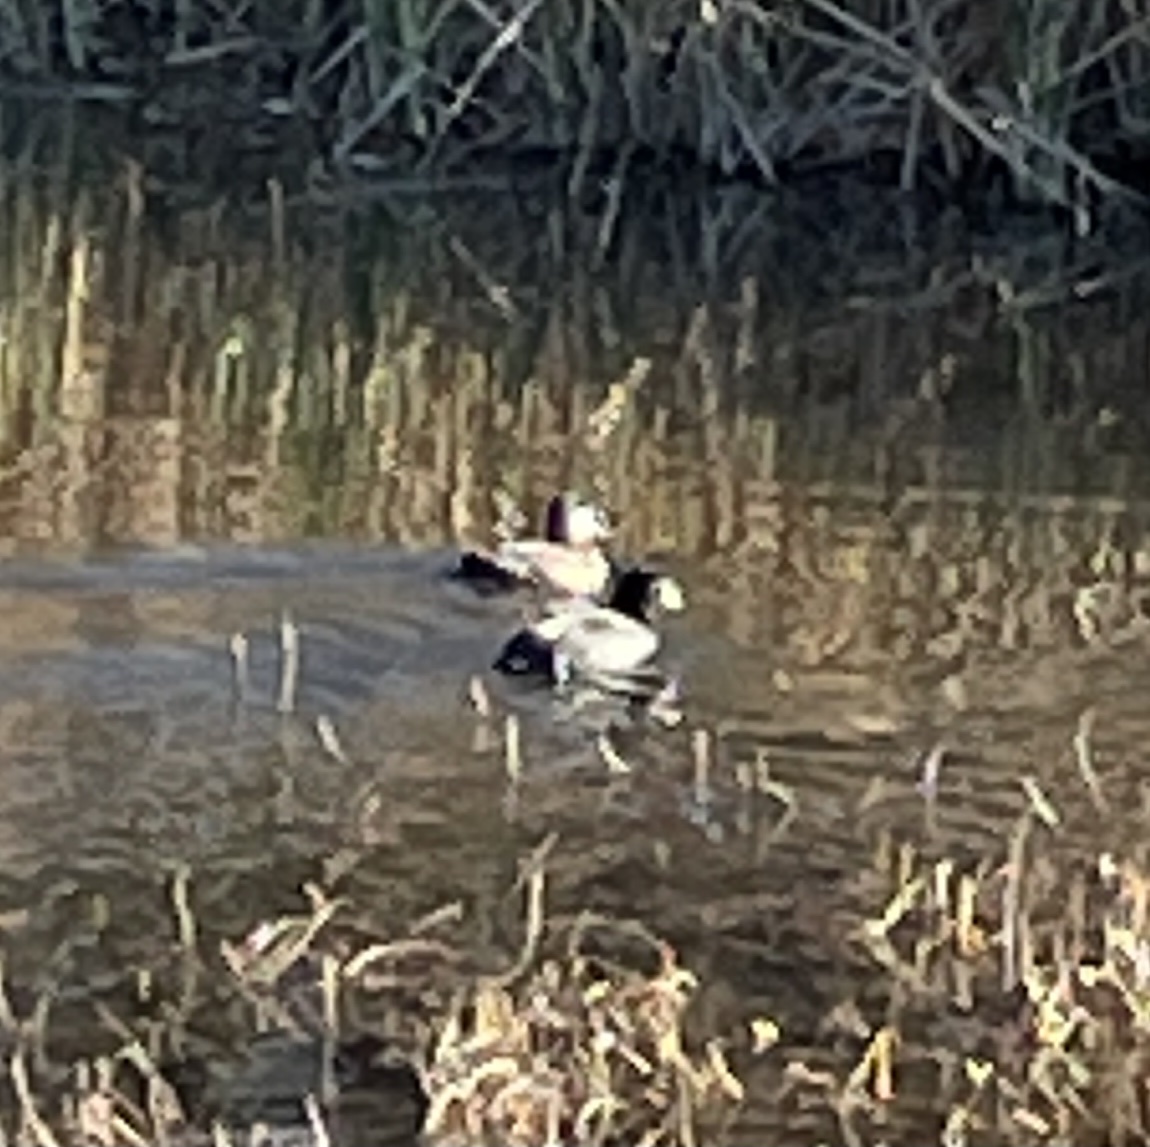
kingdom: Animalia
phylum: Chordata
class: Aves
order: Anseriformes
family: Anatidae
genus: Oxyura
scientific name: Oxyura jamaicensis
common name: Ruddy duck
